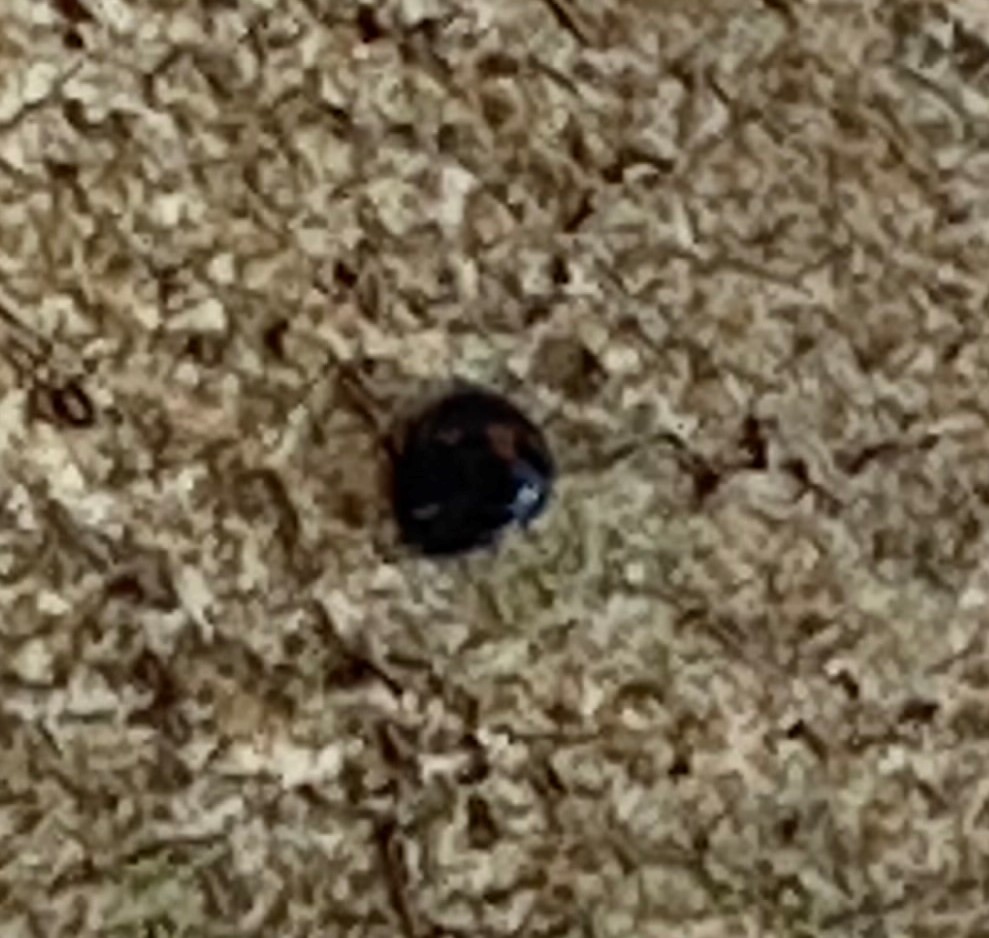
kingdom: Animalia
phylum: Arthropoda
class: Insecta
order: Coleoptera
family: Coccinellidae
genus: Chilocorus
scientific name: Chilocorus stigma
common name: Twicestabbed lady beetle
